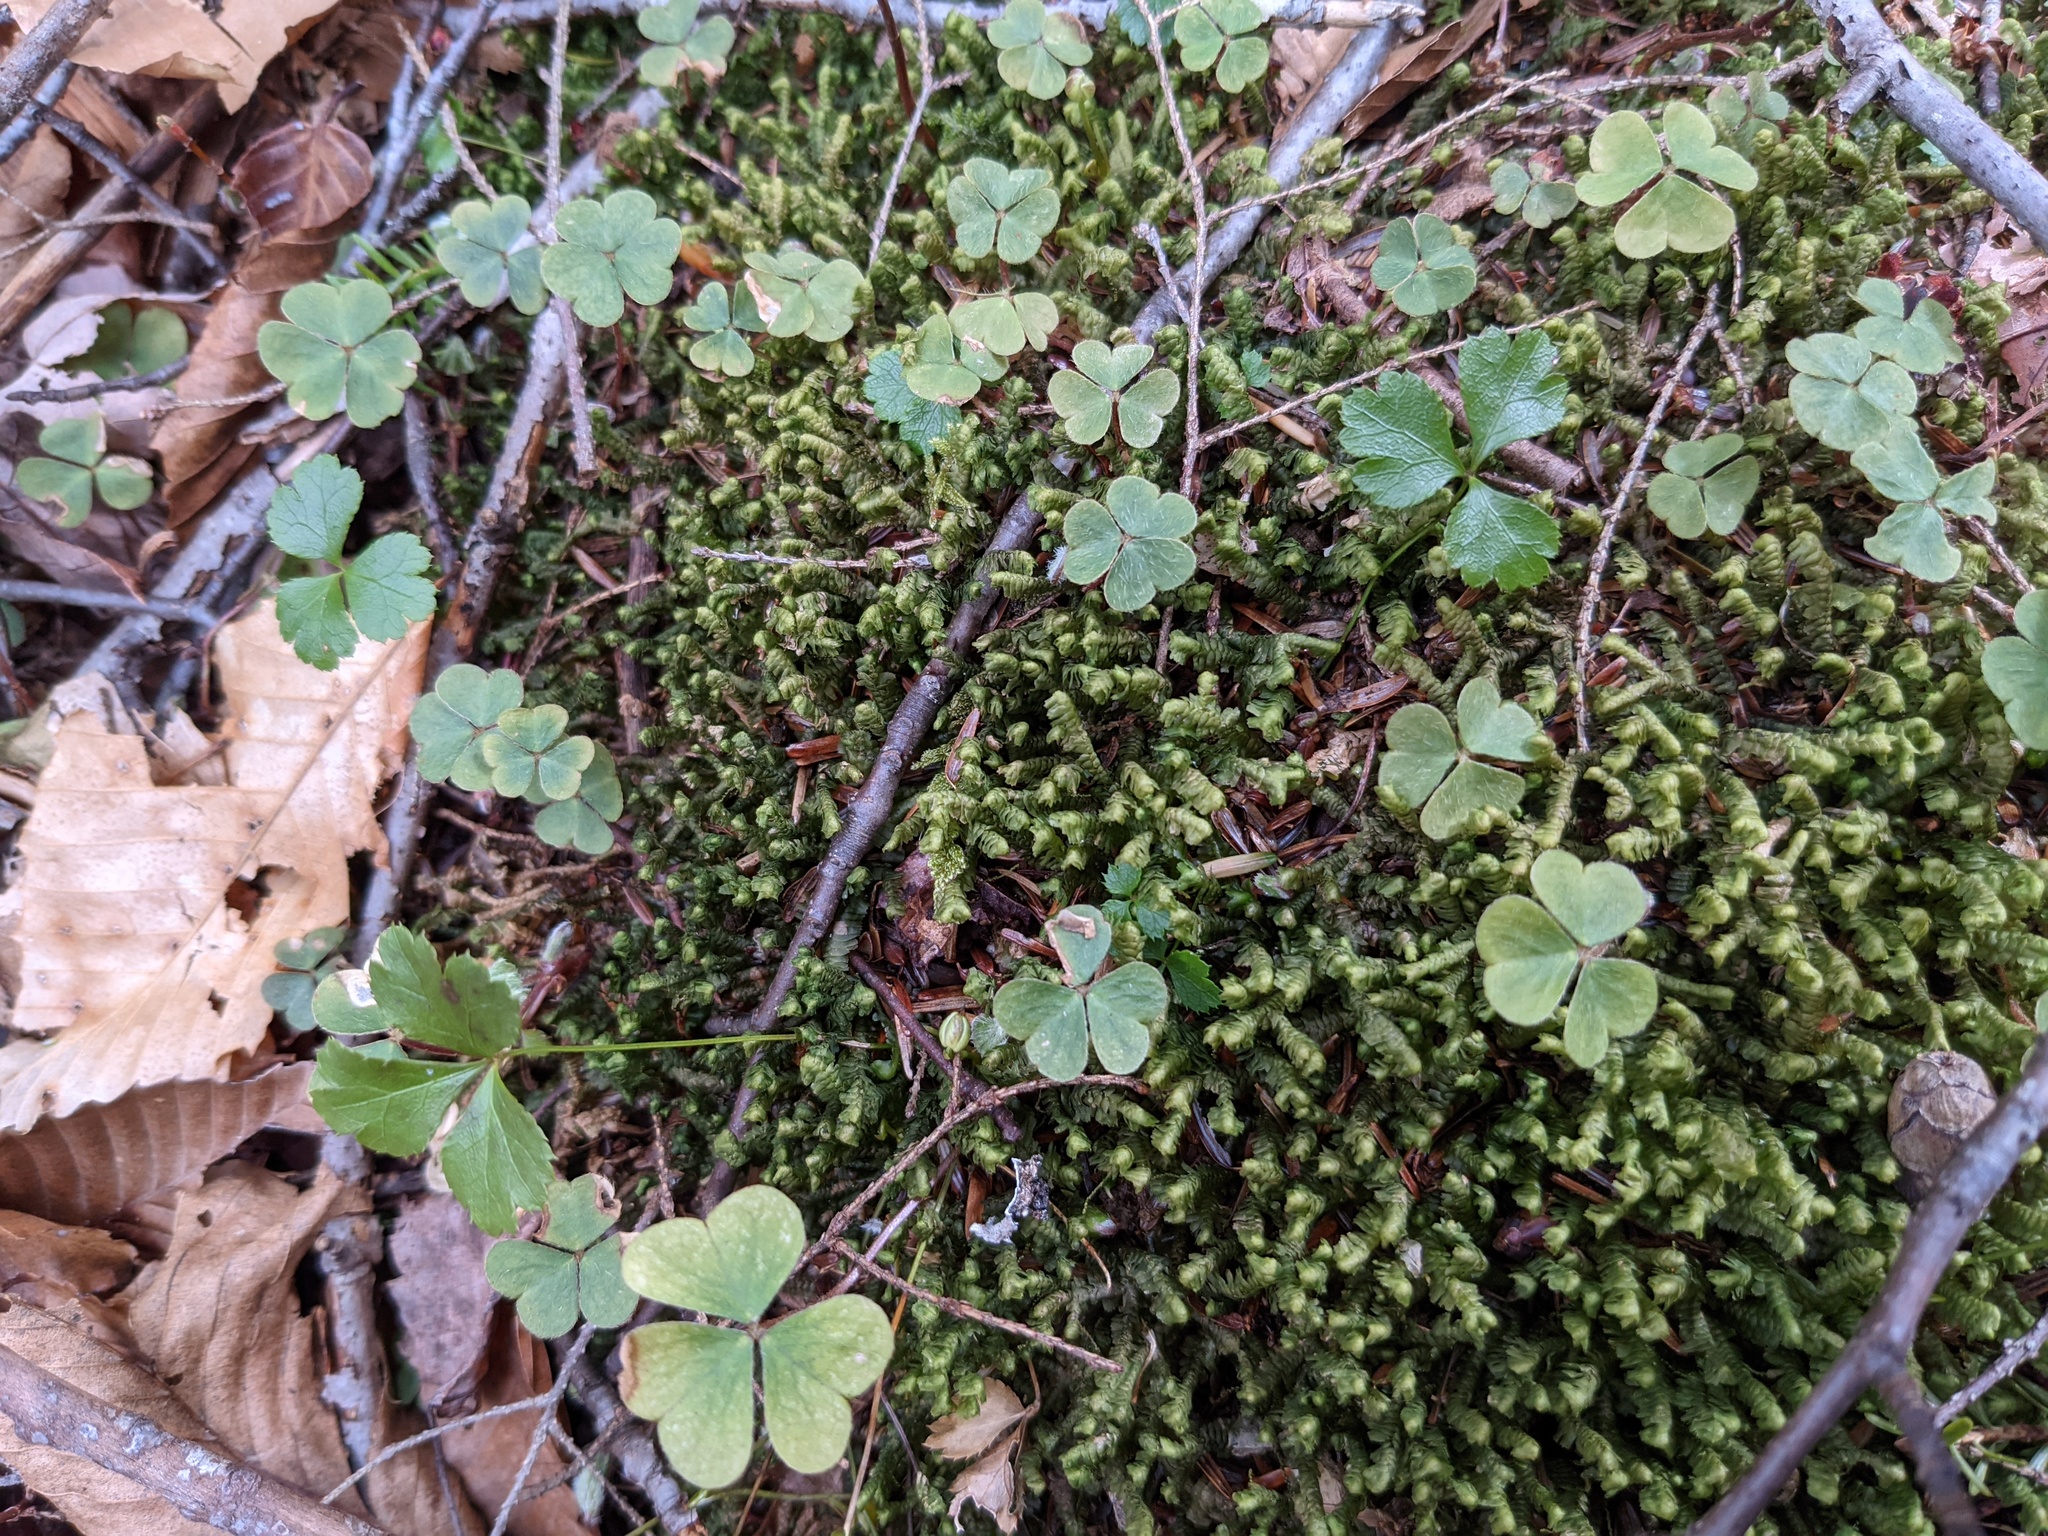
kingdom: Plantae
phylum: Marchantiophyta
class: Jungermanniopsida
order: Jungermanniales
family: Lepidoziaceae
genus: Bazzania
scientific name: Bazzania trilobata
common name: Three-lobed whipwort
